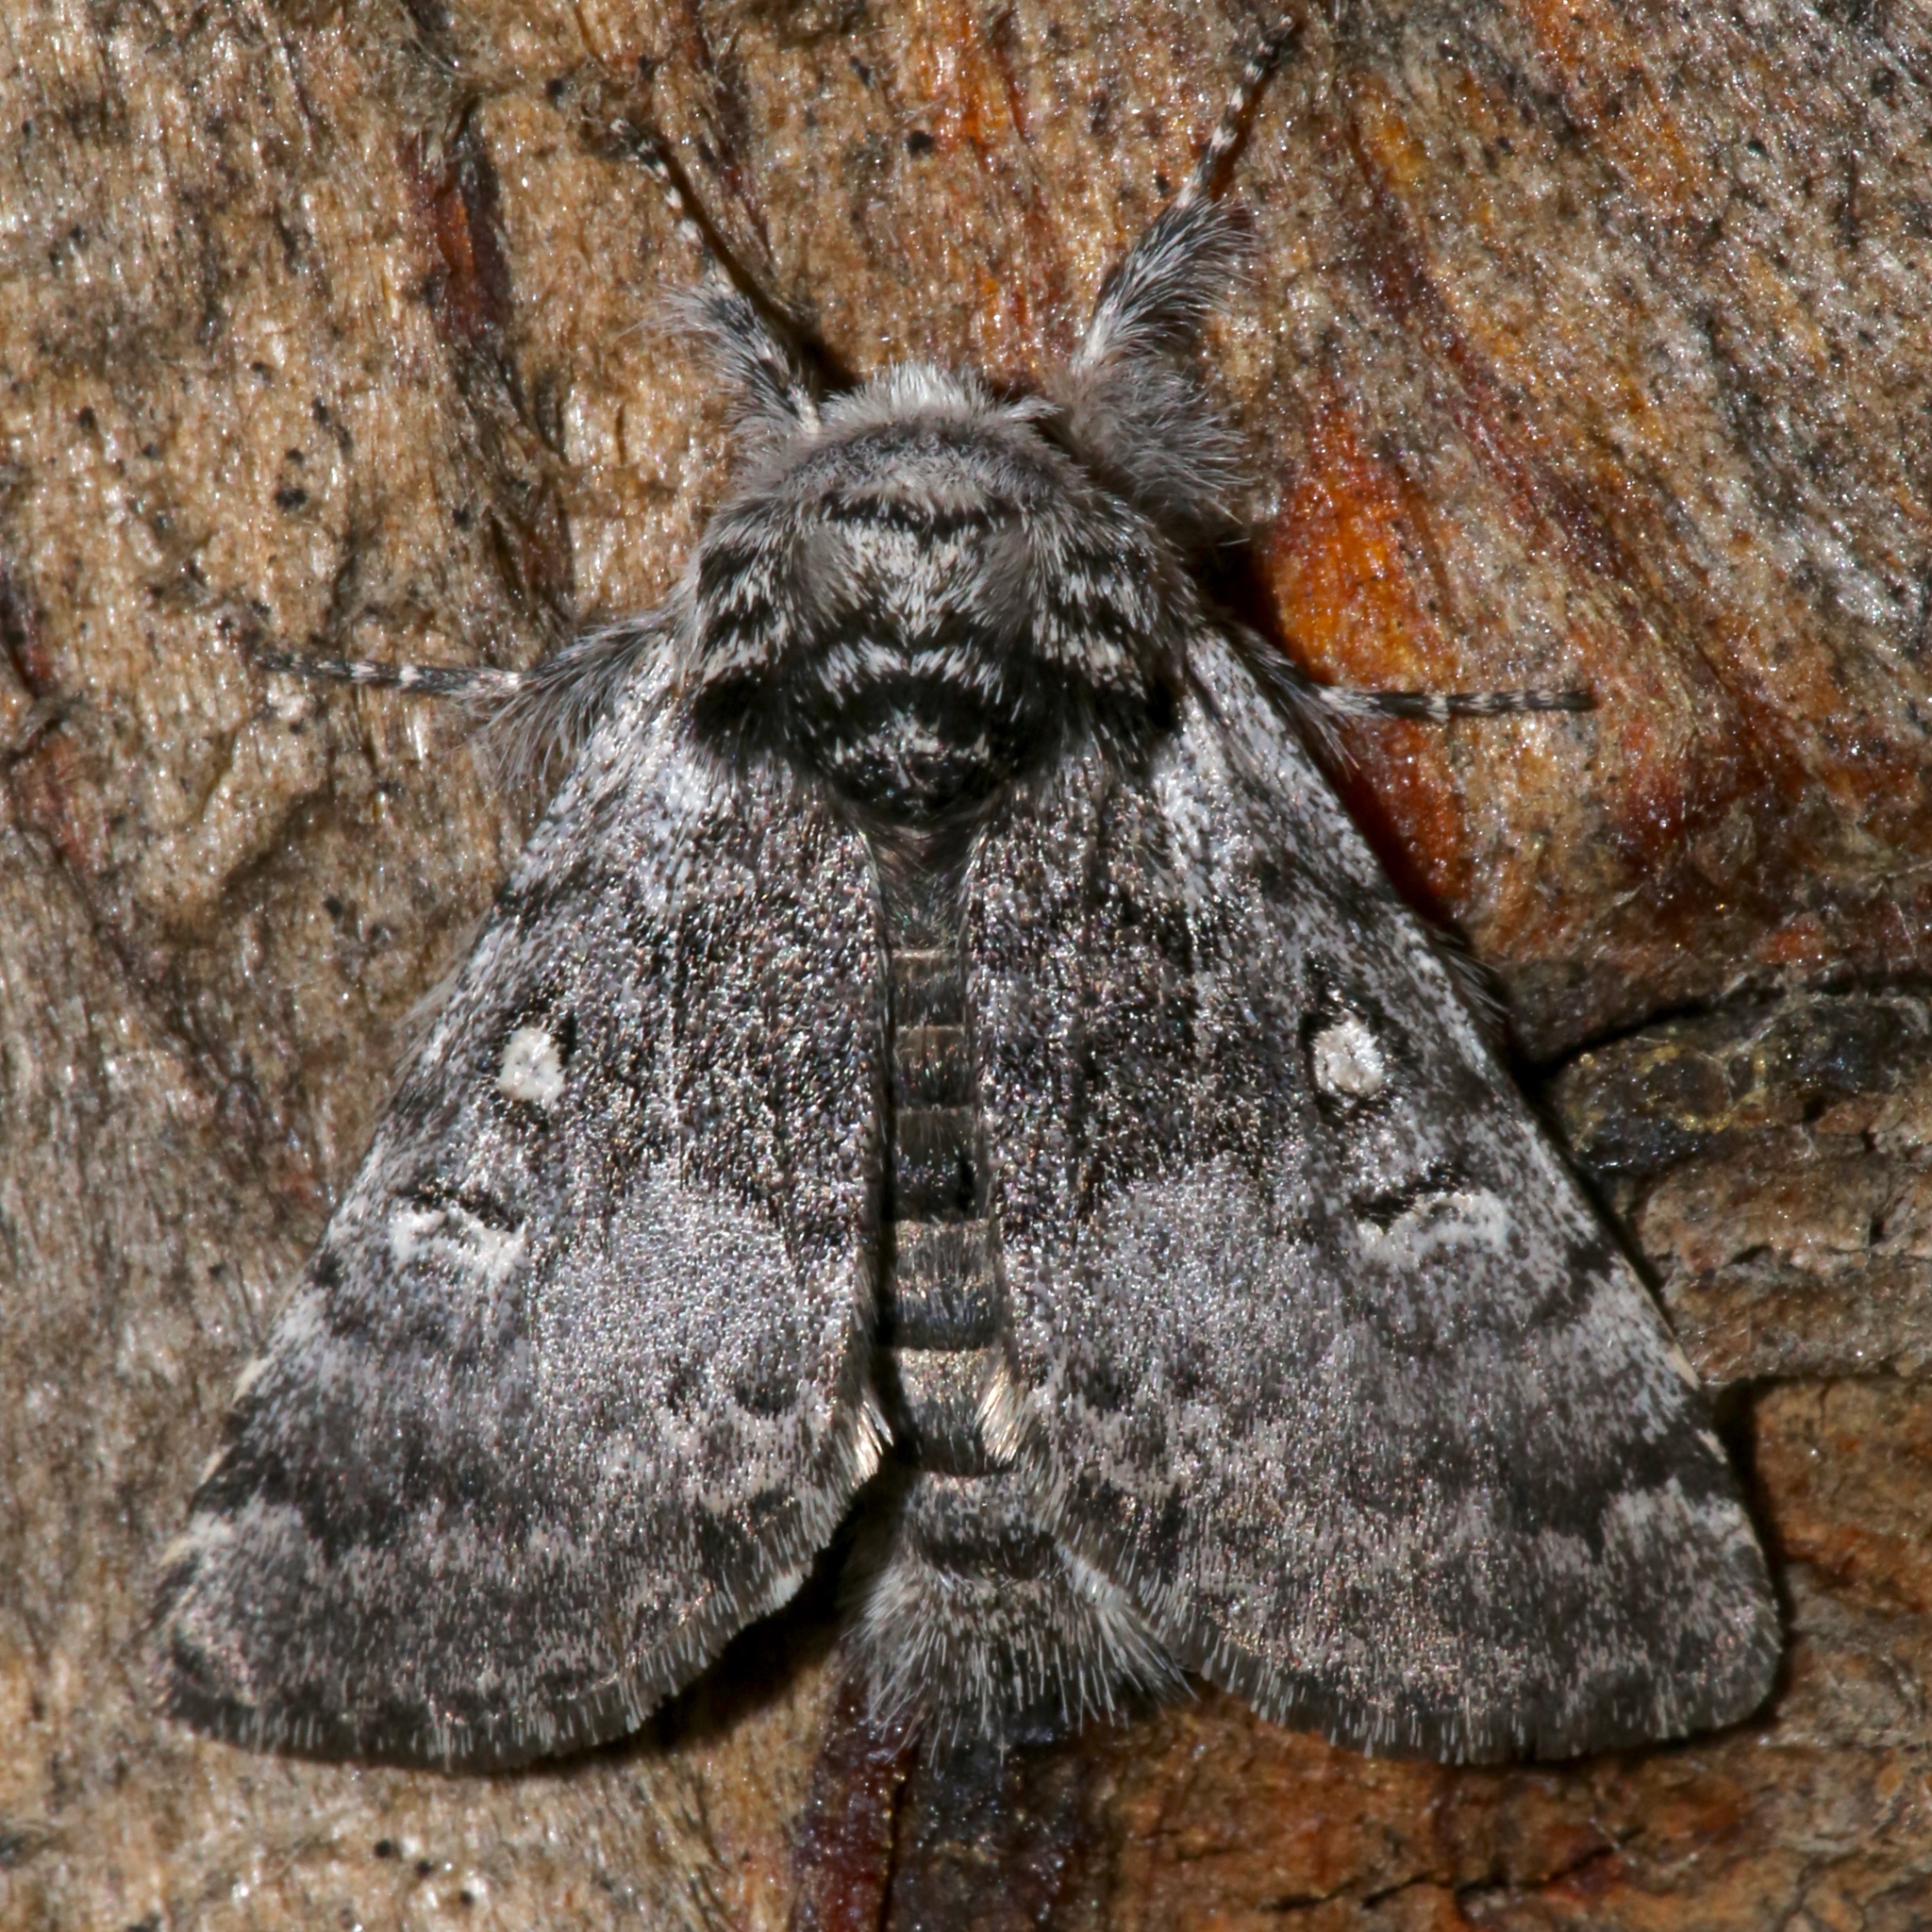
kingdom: Animalia
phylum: Arthropoda
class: Insecta
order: Lepidoptera
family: Noctuidae
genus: Colocasia
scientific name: Colocasia propinquilinea
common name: Close-banded demas
